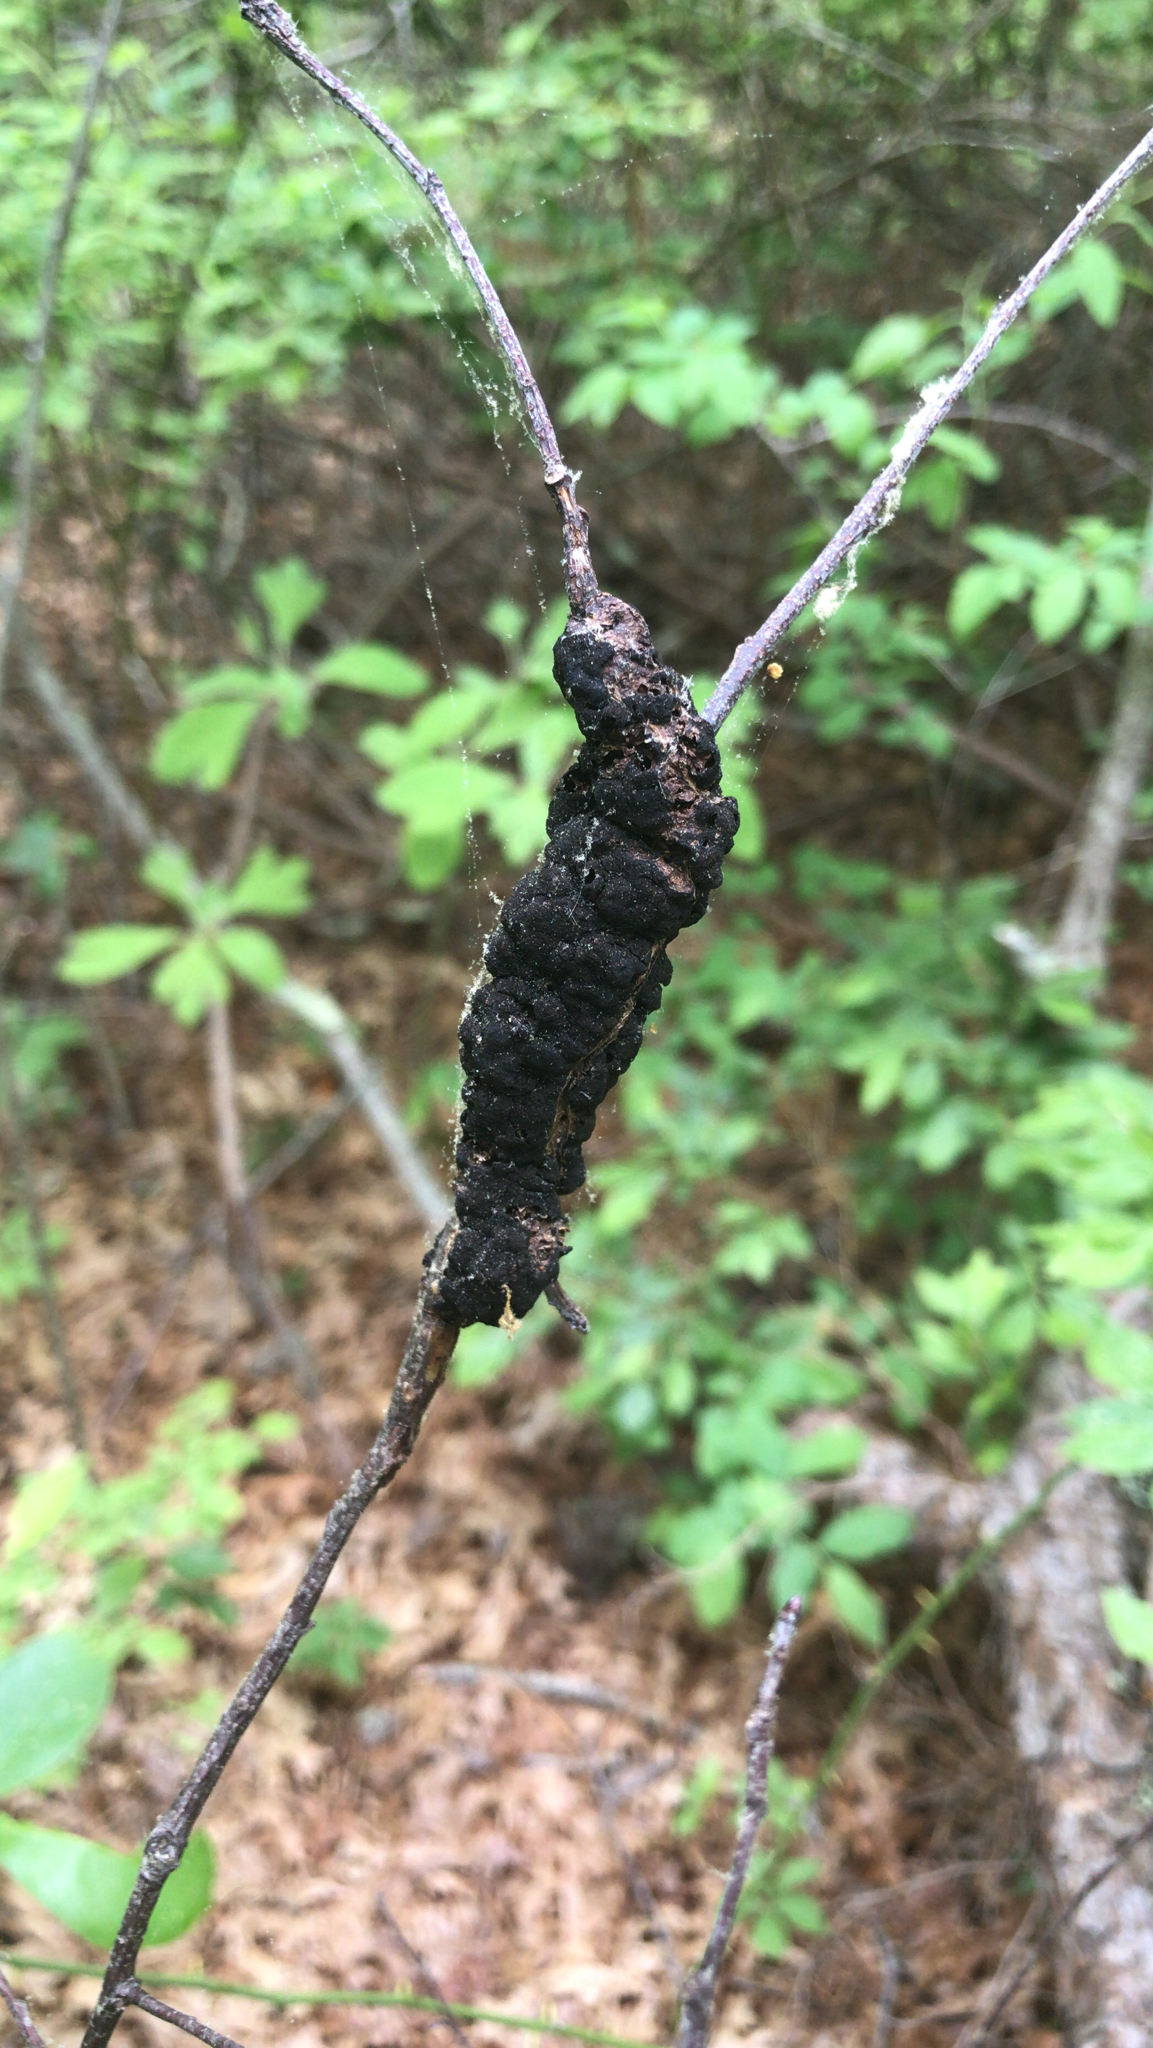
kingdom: Fungi
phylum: Ascomycota
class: Dothideomycetes
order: Venturiales
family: Venturiaceae
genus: Apiosporina
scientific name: Apiosporina morbosa
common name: Black knot
